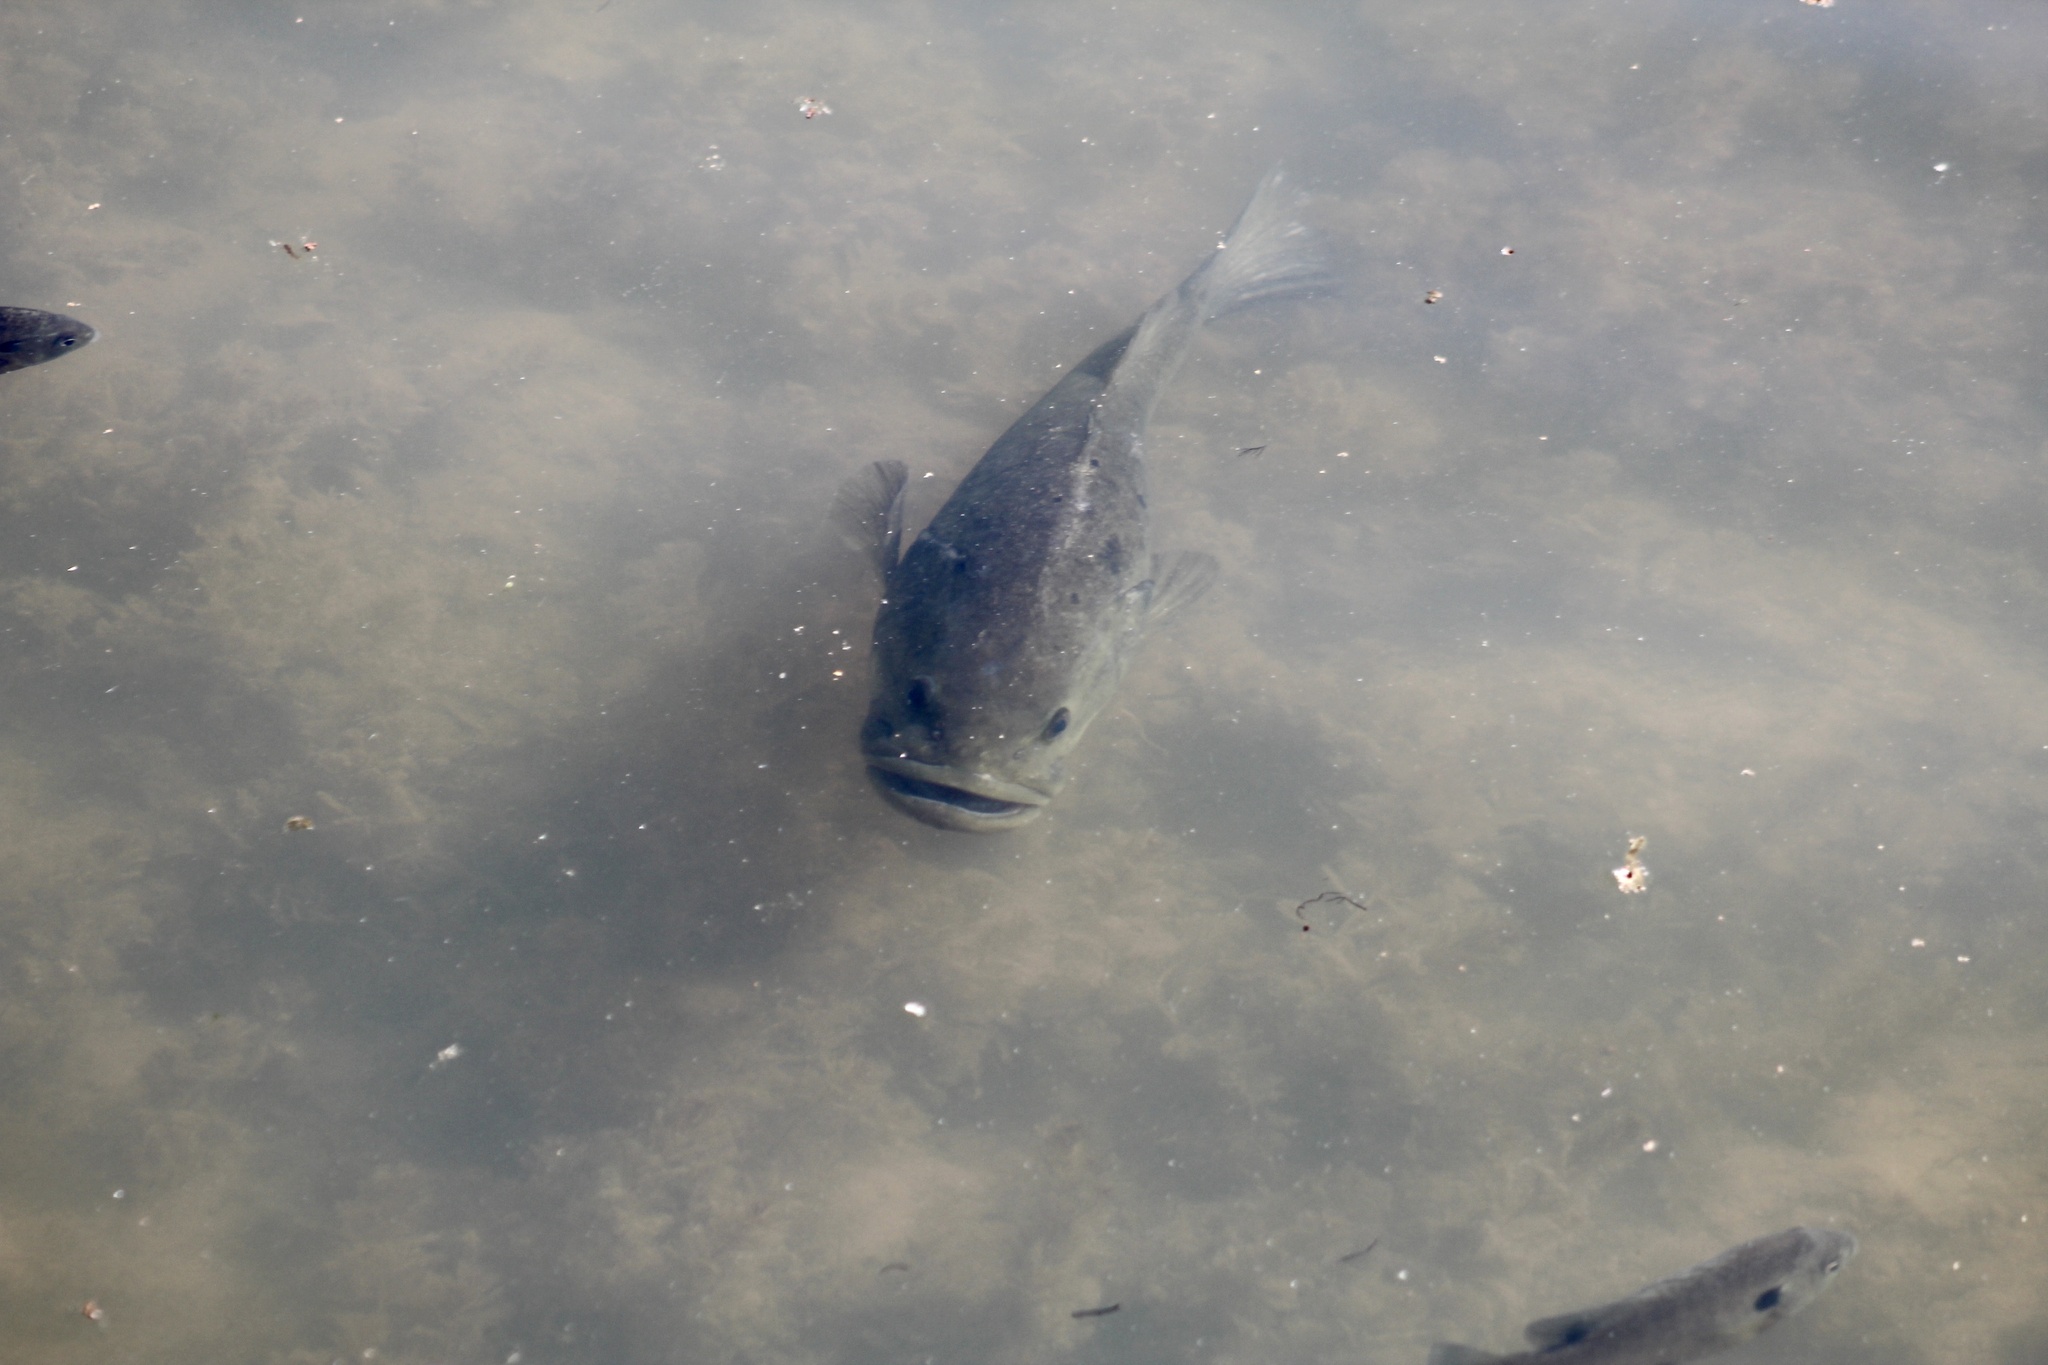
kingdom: Animalia
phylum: Chordata
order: Perciformes
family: Centrarchidae
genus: Micropterus
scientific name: Micropterus
